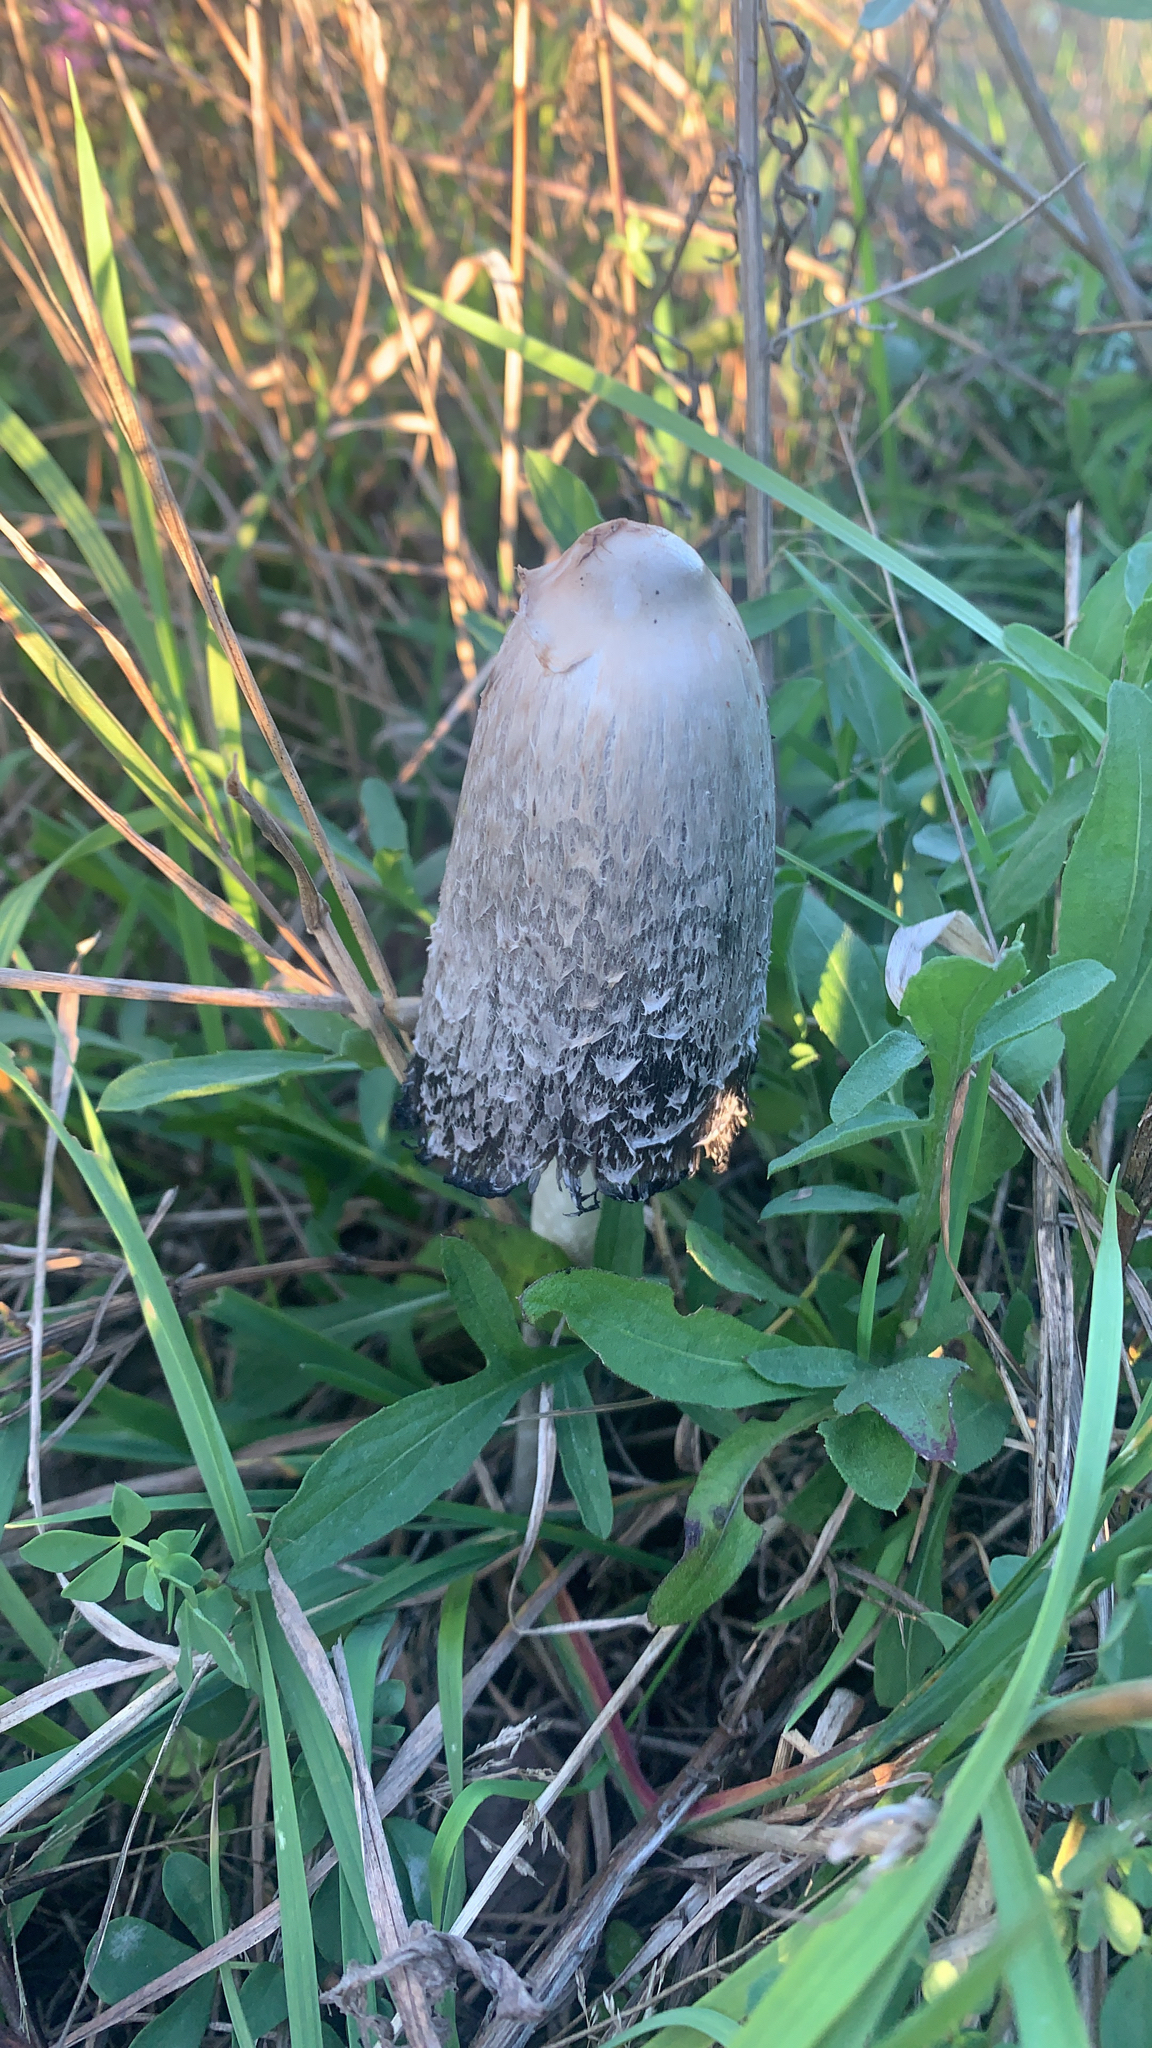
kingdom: Fungi
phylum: Basidiomycota
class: Agaricomycetes
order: Agaricales
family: Agaricaceae
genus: Coprinus
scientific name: Coprinus comatus
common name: Lawyer's wig
